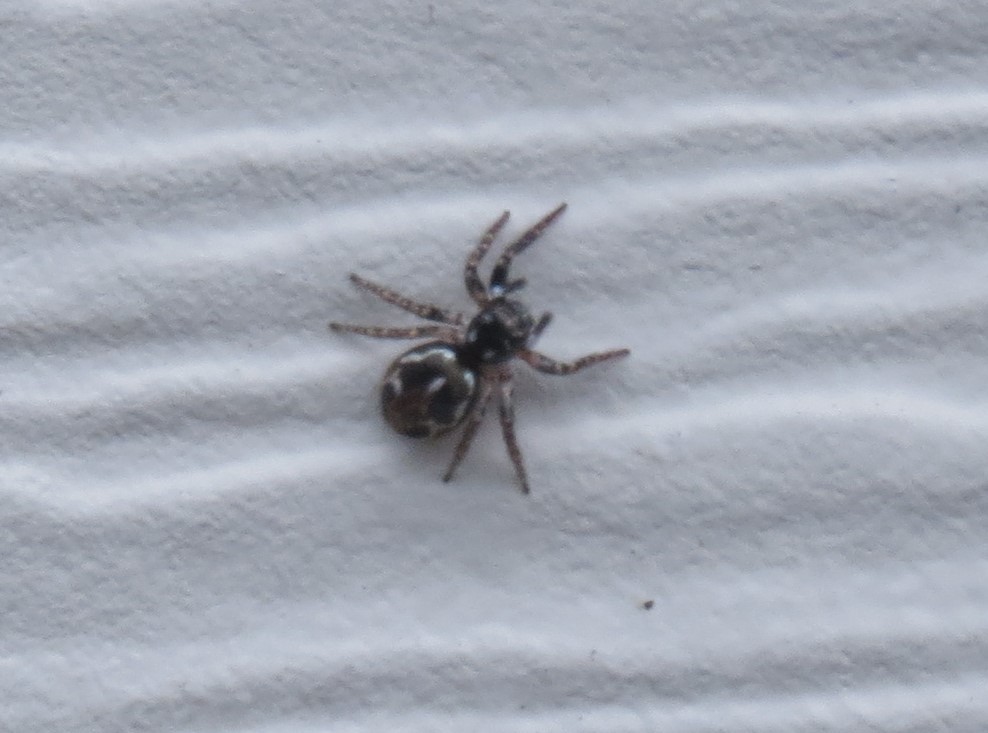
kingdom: Animalia
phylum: Arthropoda
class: Arachnida
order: Araneae
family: Salticidae
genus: Anasaitis
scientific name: Anasaitis canosa
